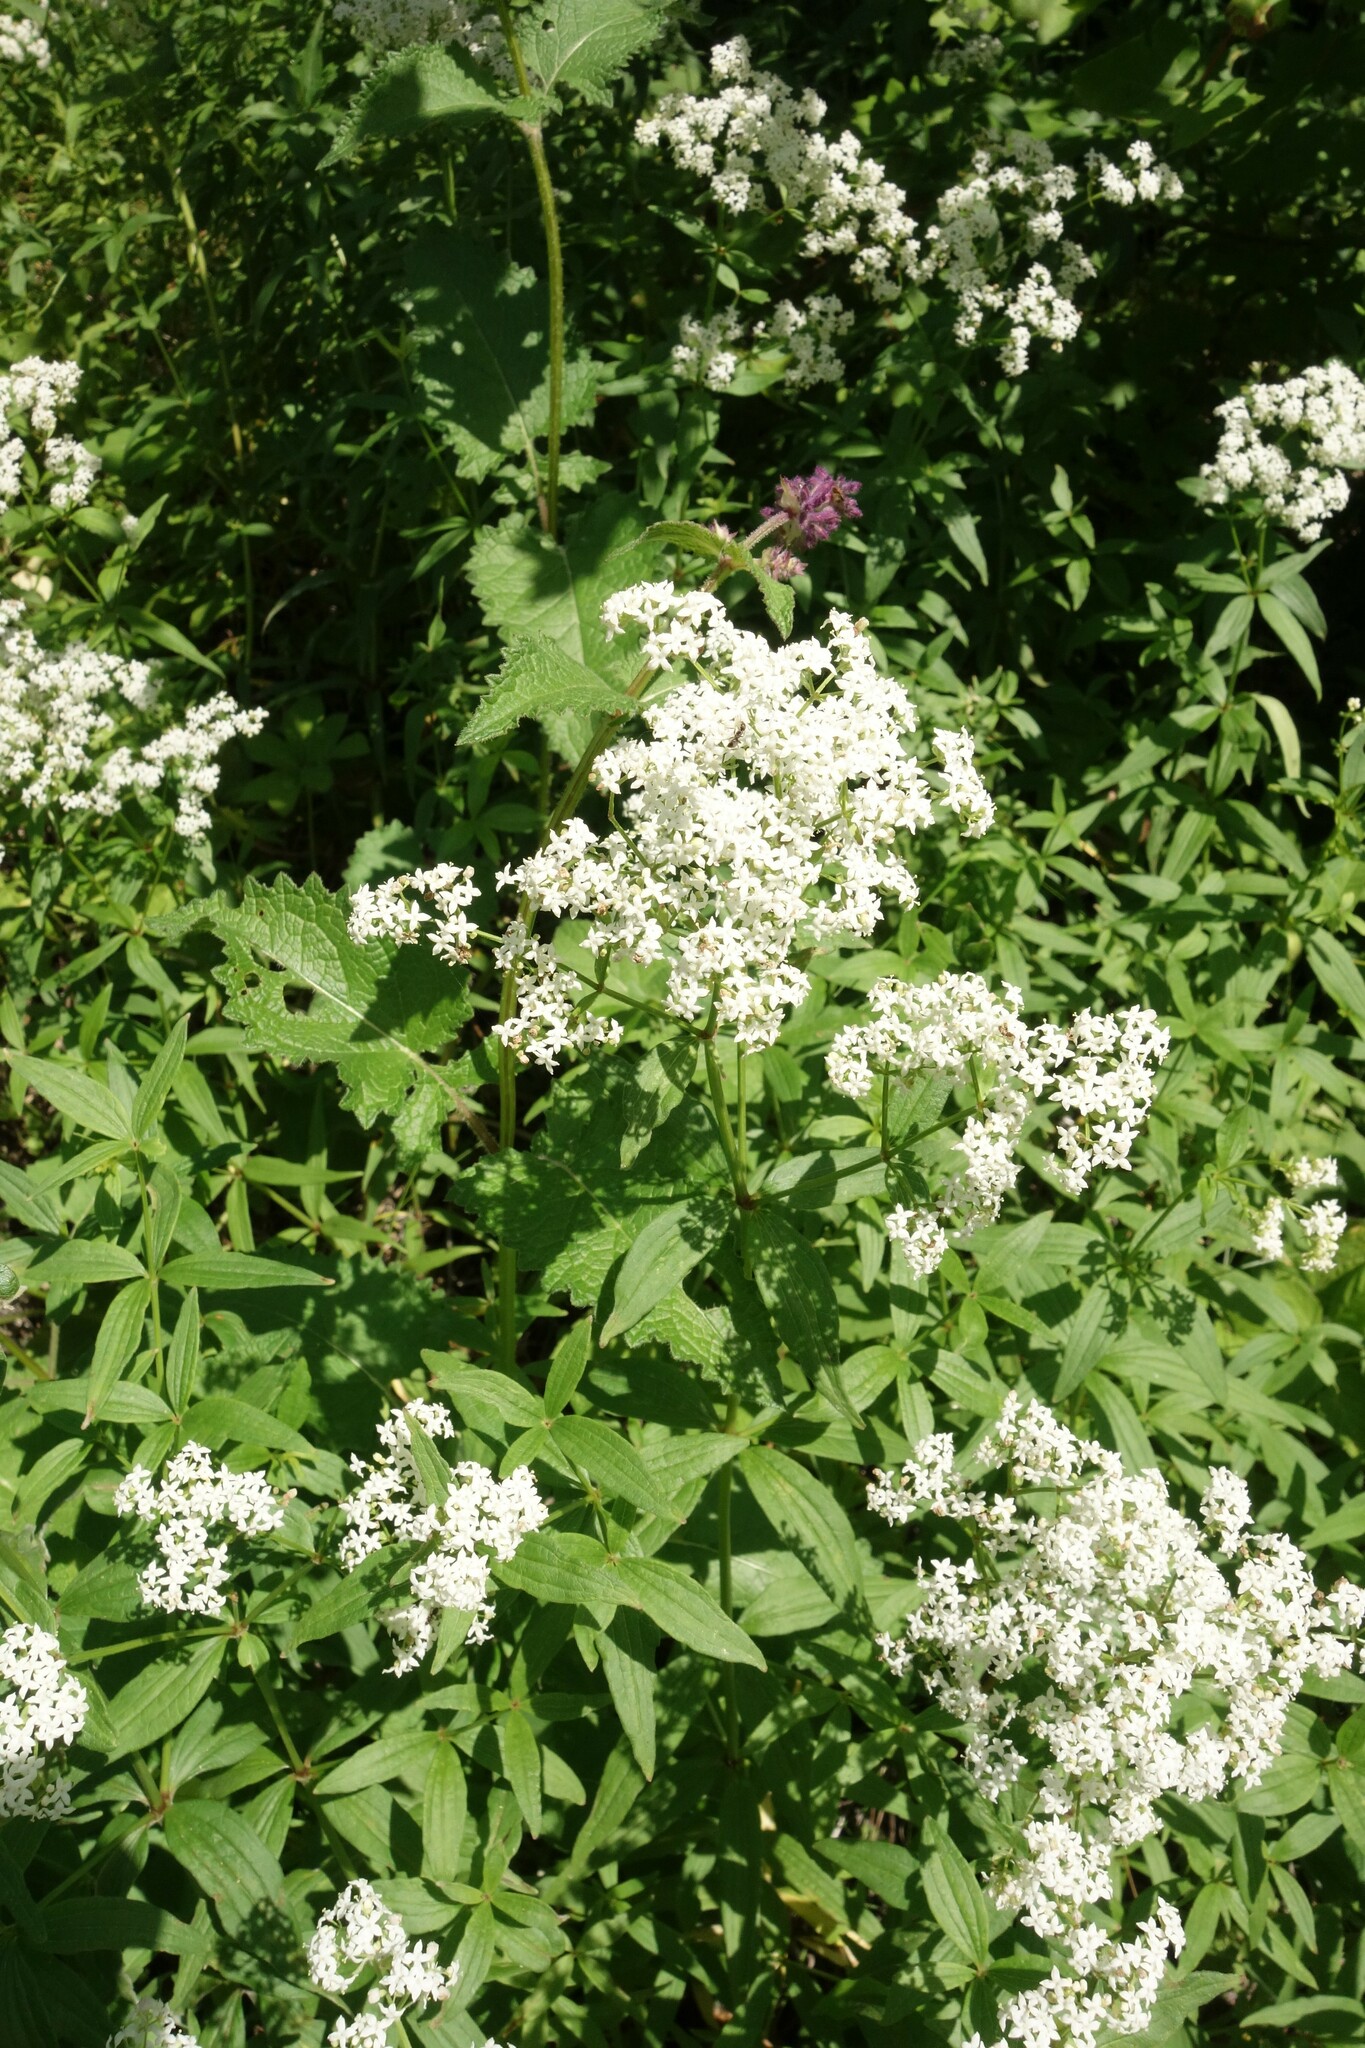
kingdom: Plantae
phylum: Tracheophyta
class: Magnoliopsida
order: Gentianales
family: Rubiaceae
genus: Galium
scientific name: Galium rubioides
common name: European bedstraw
